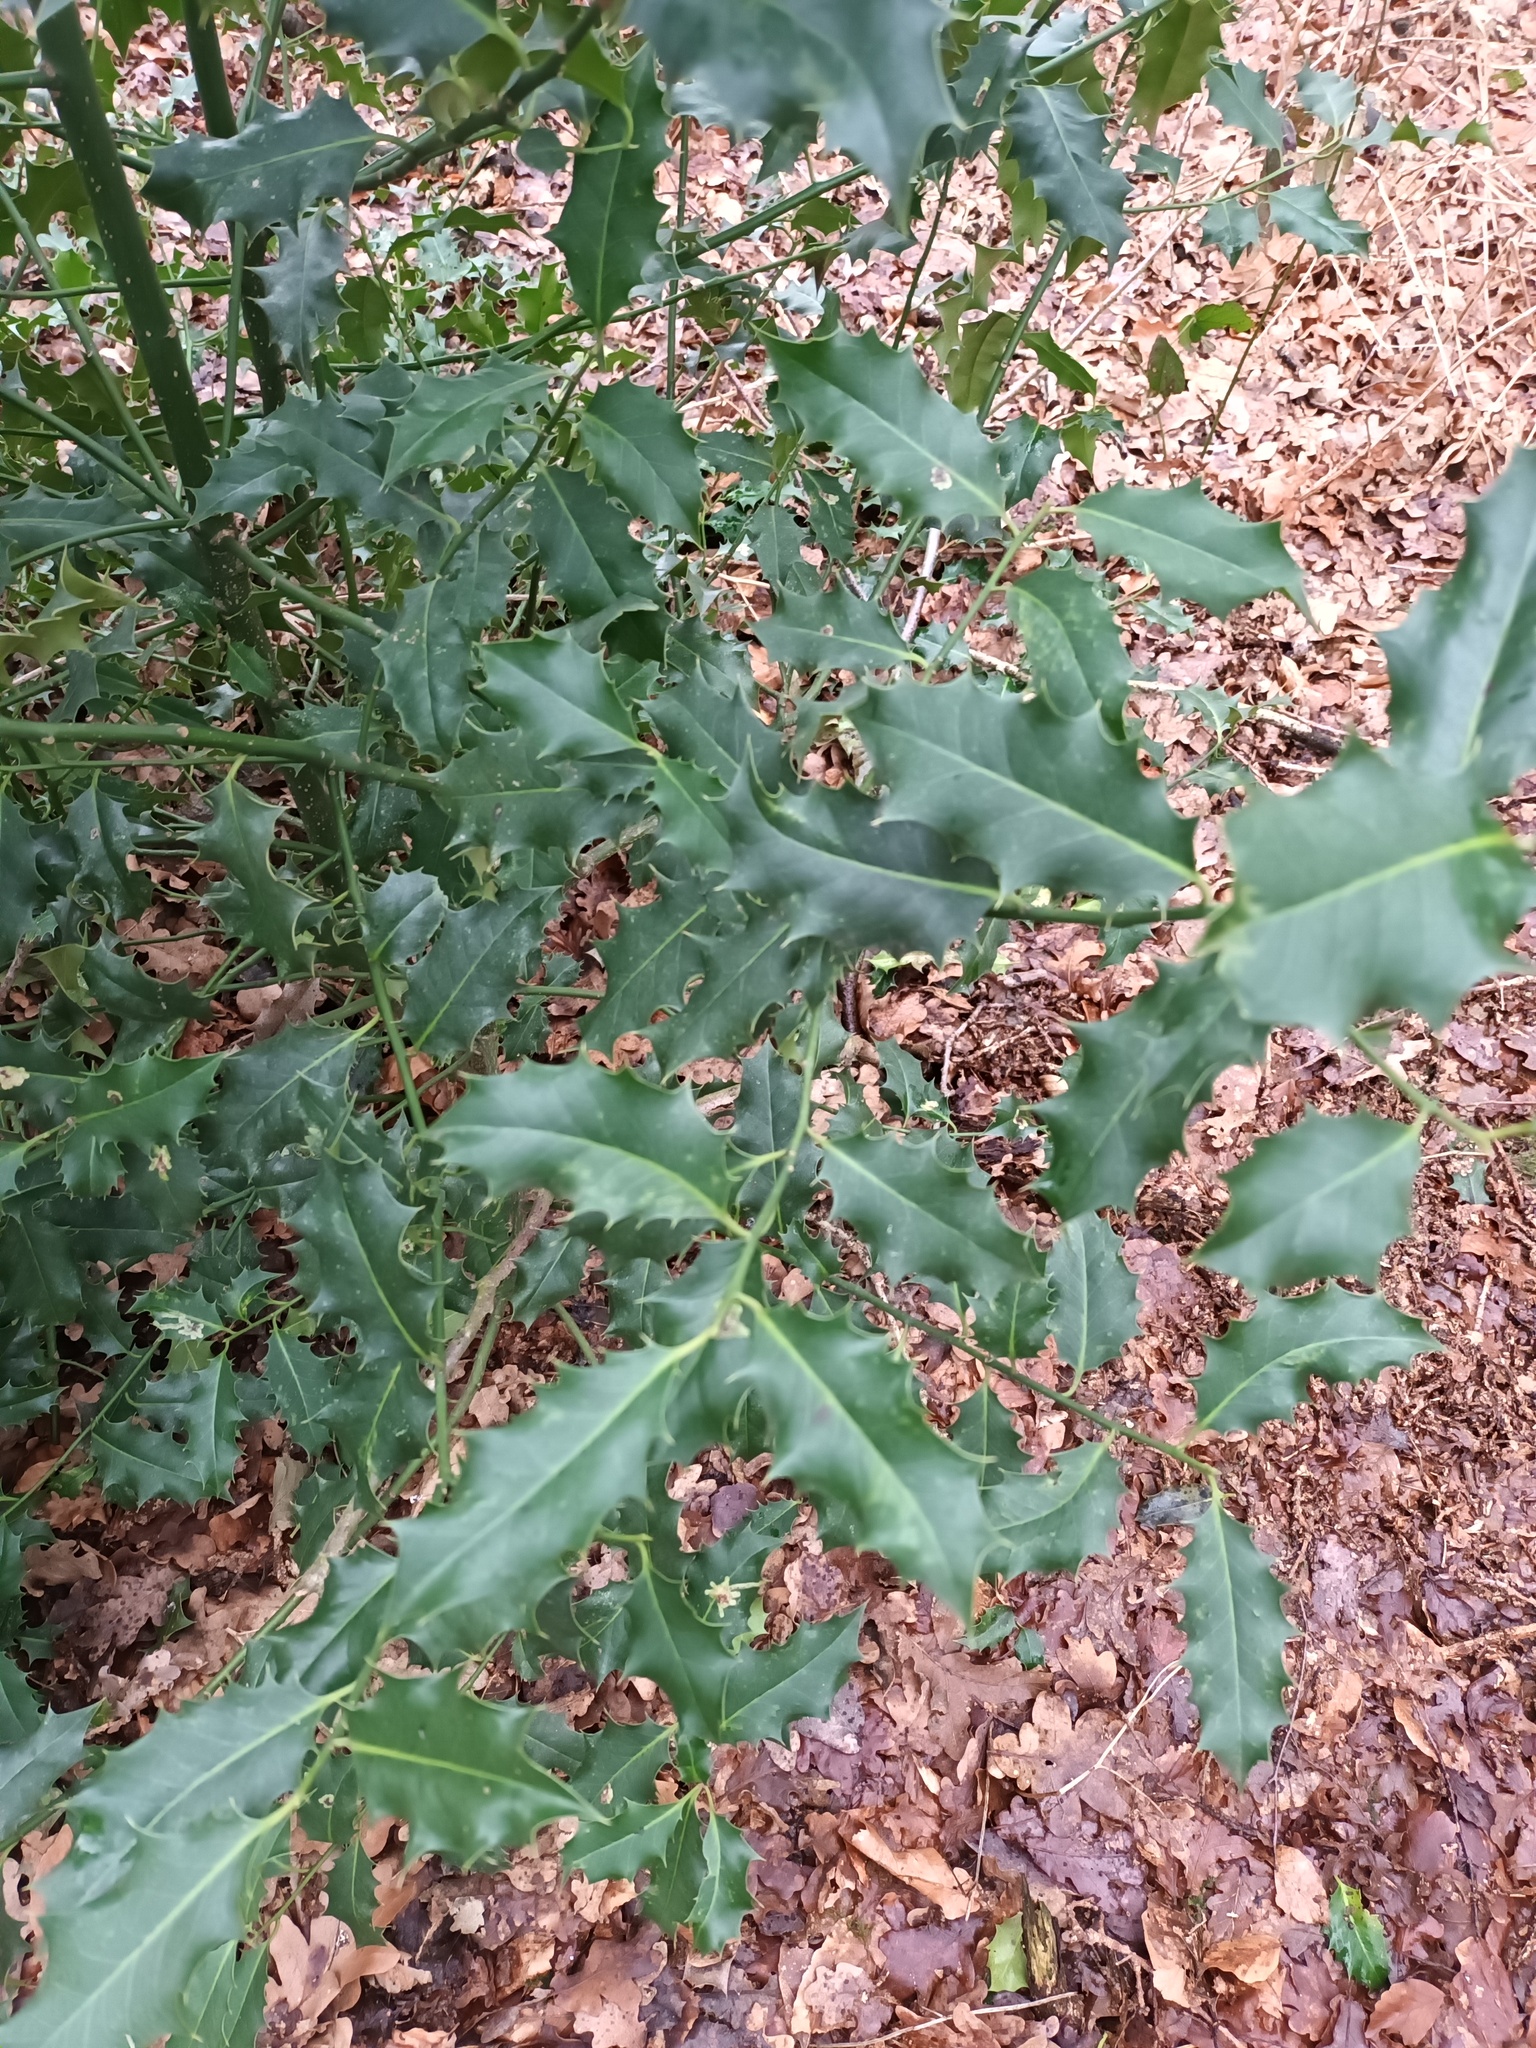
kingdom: Plantae
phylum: Tracheophyta
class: Magnoliopsida
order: Aquifoliales
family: Aquifoliaceae
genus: Ilex
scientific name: Ilex aquifolium
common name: English holly
